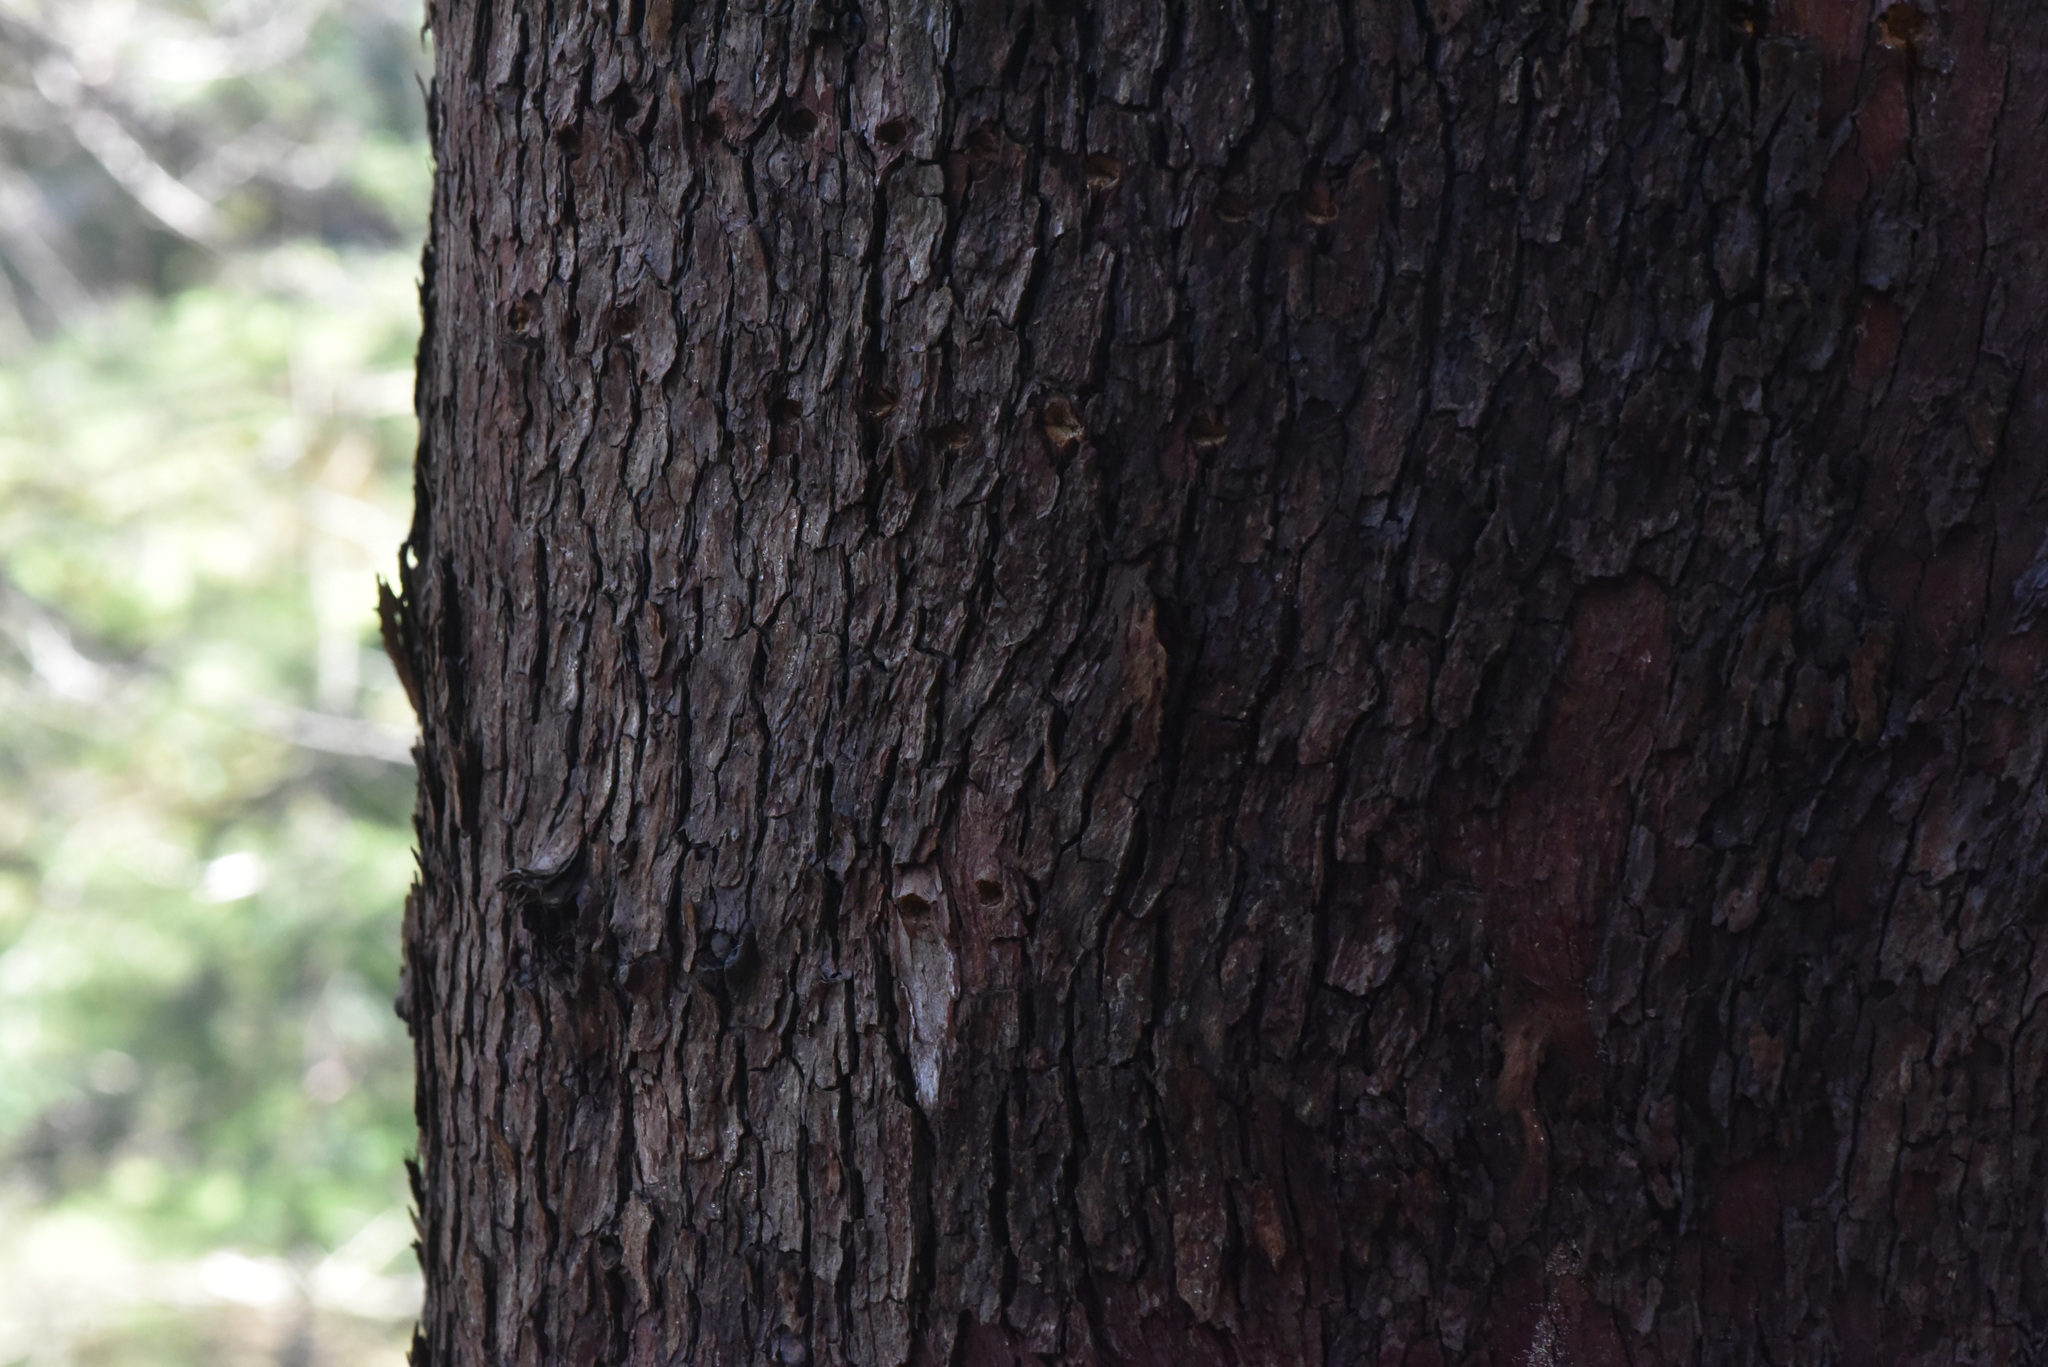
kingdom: Plantae
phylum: Tracheophyta
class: Magnoliopsida
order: Ericales
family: Ericaceae
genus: Arbutus
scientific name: Arbutus menziesii
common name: Pacific madrone
